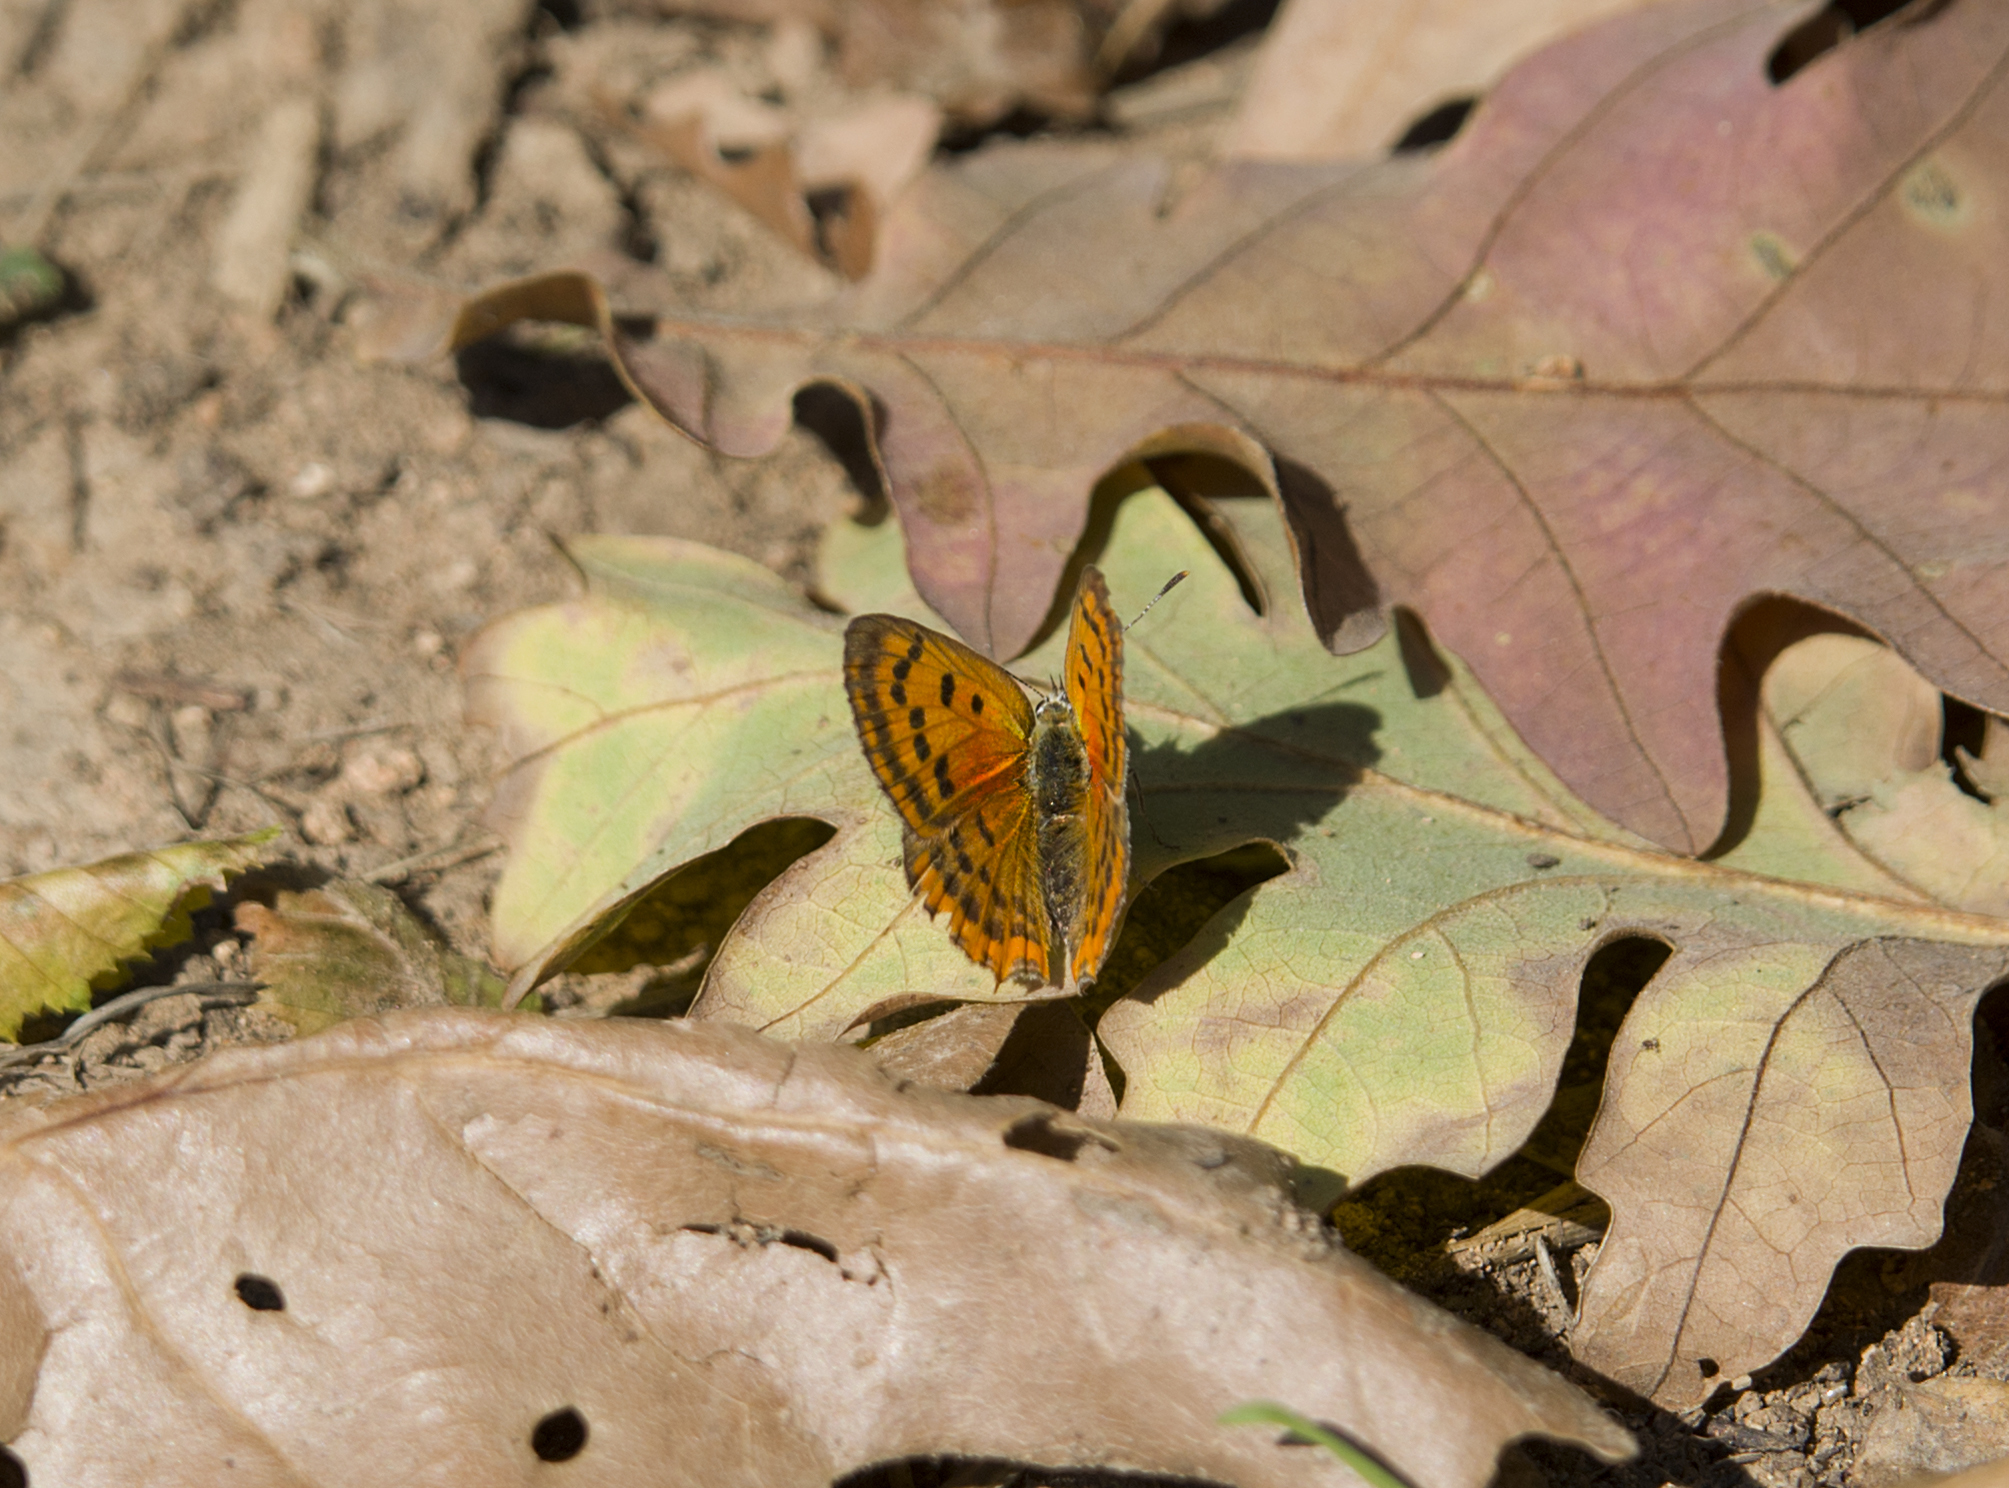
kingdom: Animalia
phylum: Arthropoda
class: Insecta
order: Lepidoptera
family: Lycaenidae
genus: Polyommatus
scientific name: Polyommatus ottomanus
